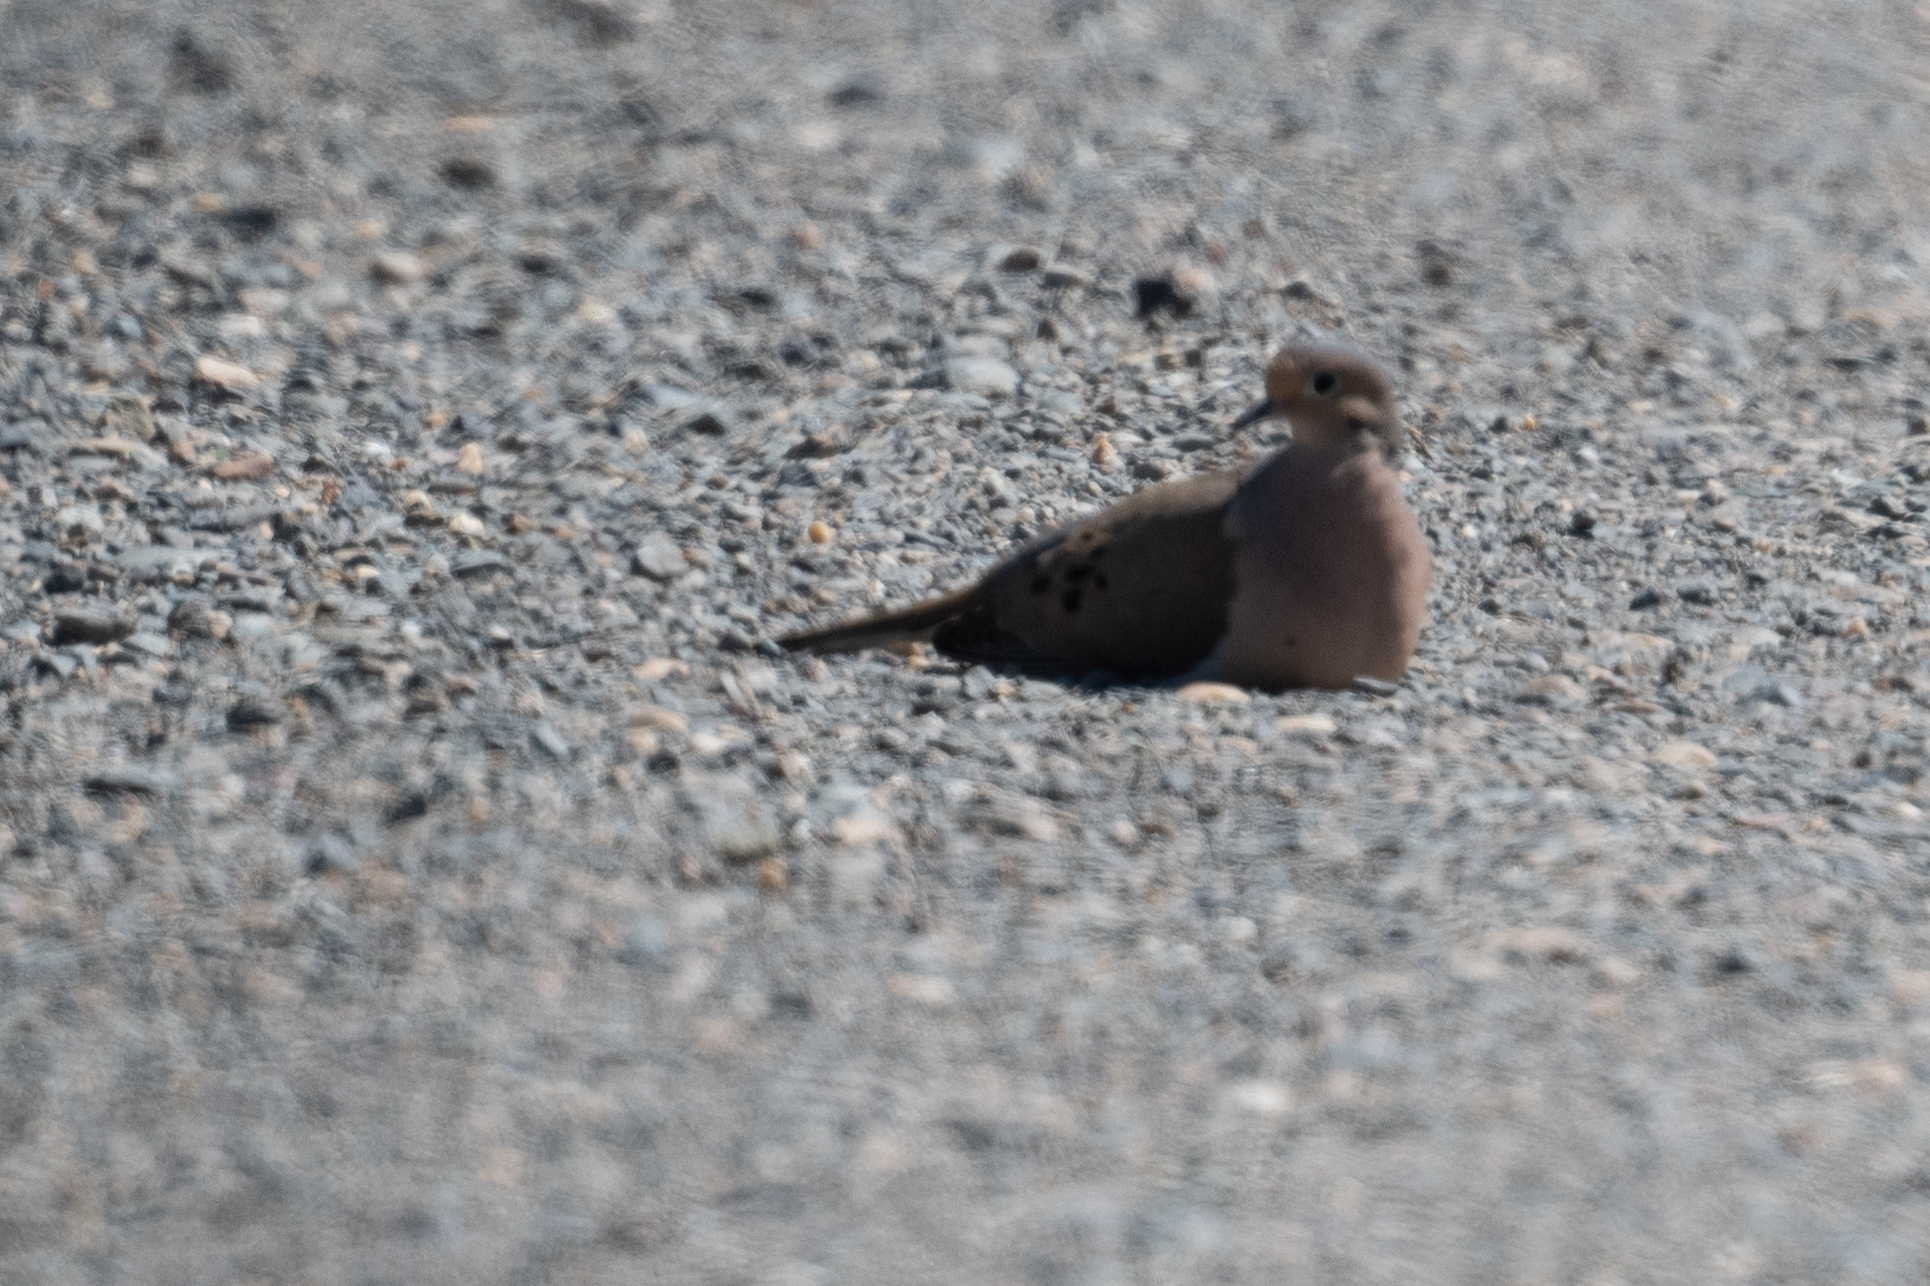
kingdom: Animalia
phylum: Chordata
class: Aves
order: Columbiformes
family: Columbidae
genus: Zenaida
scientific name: Zenaida macroura
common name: Mourning dove
